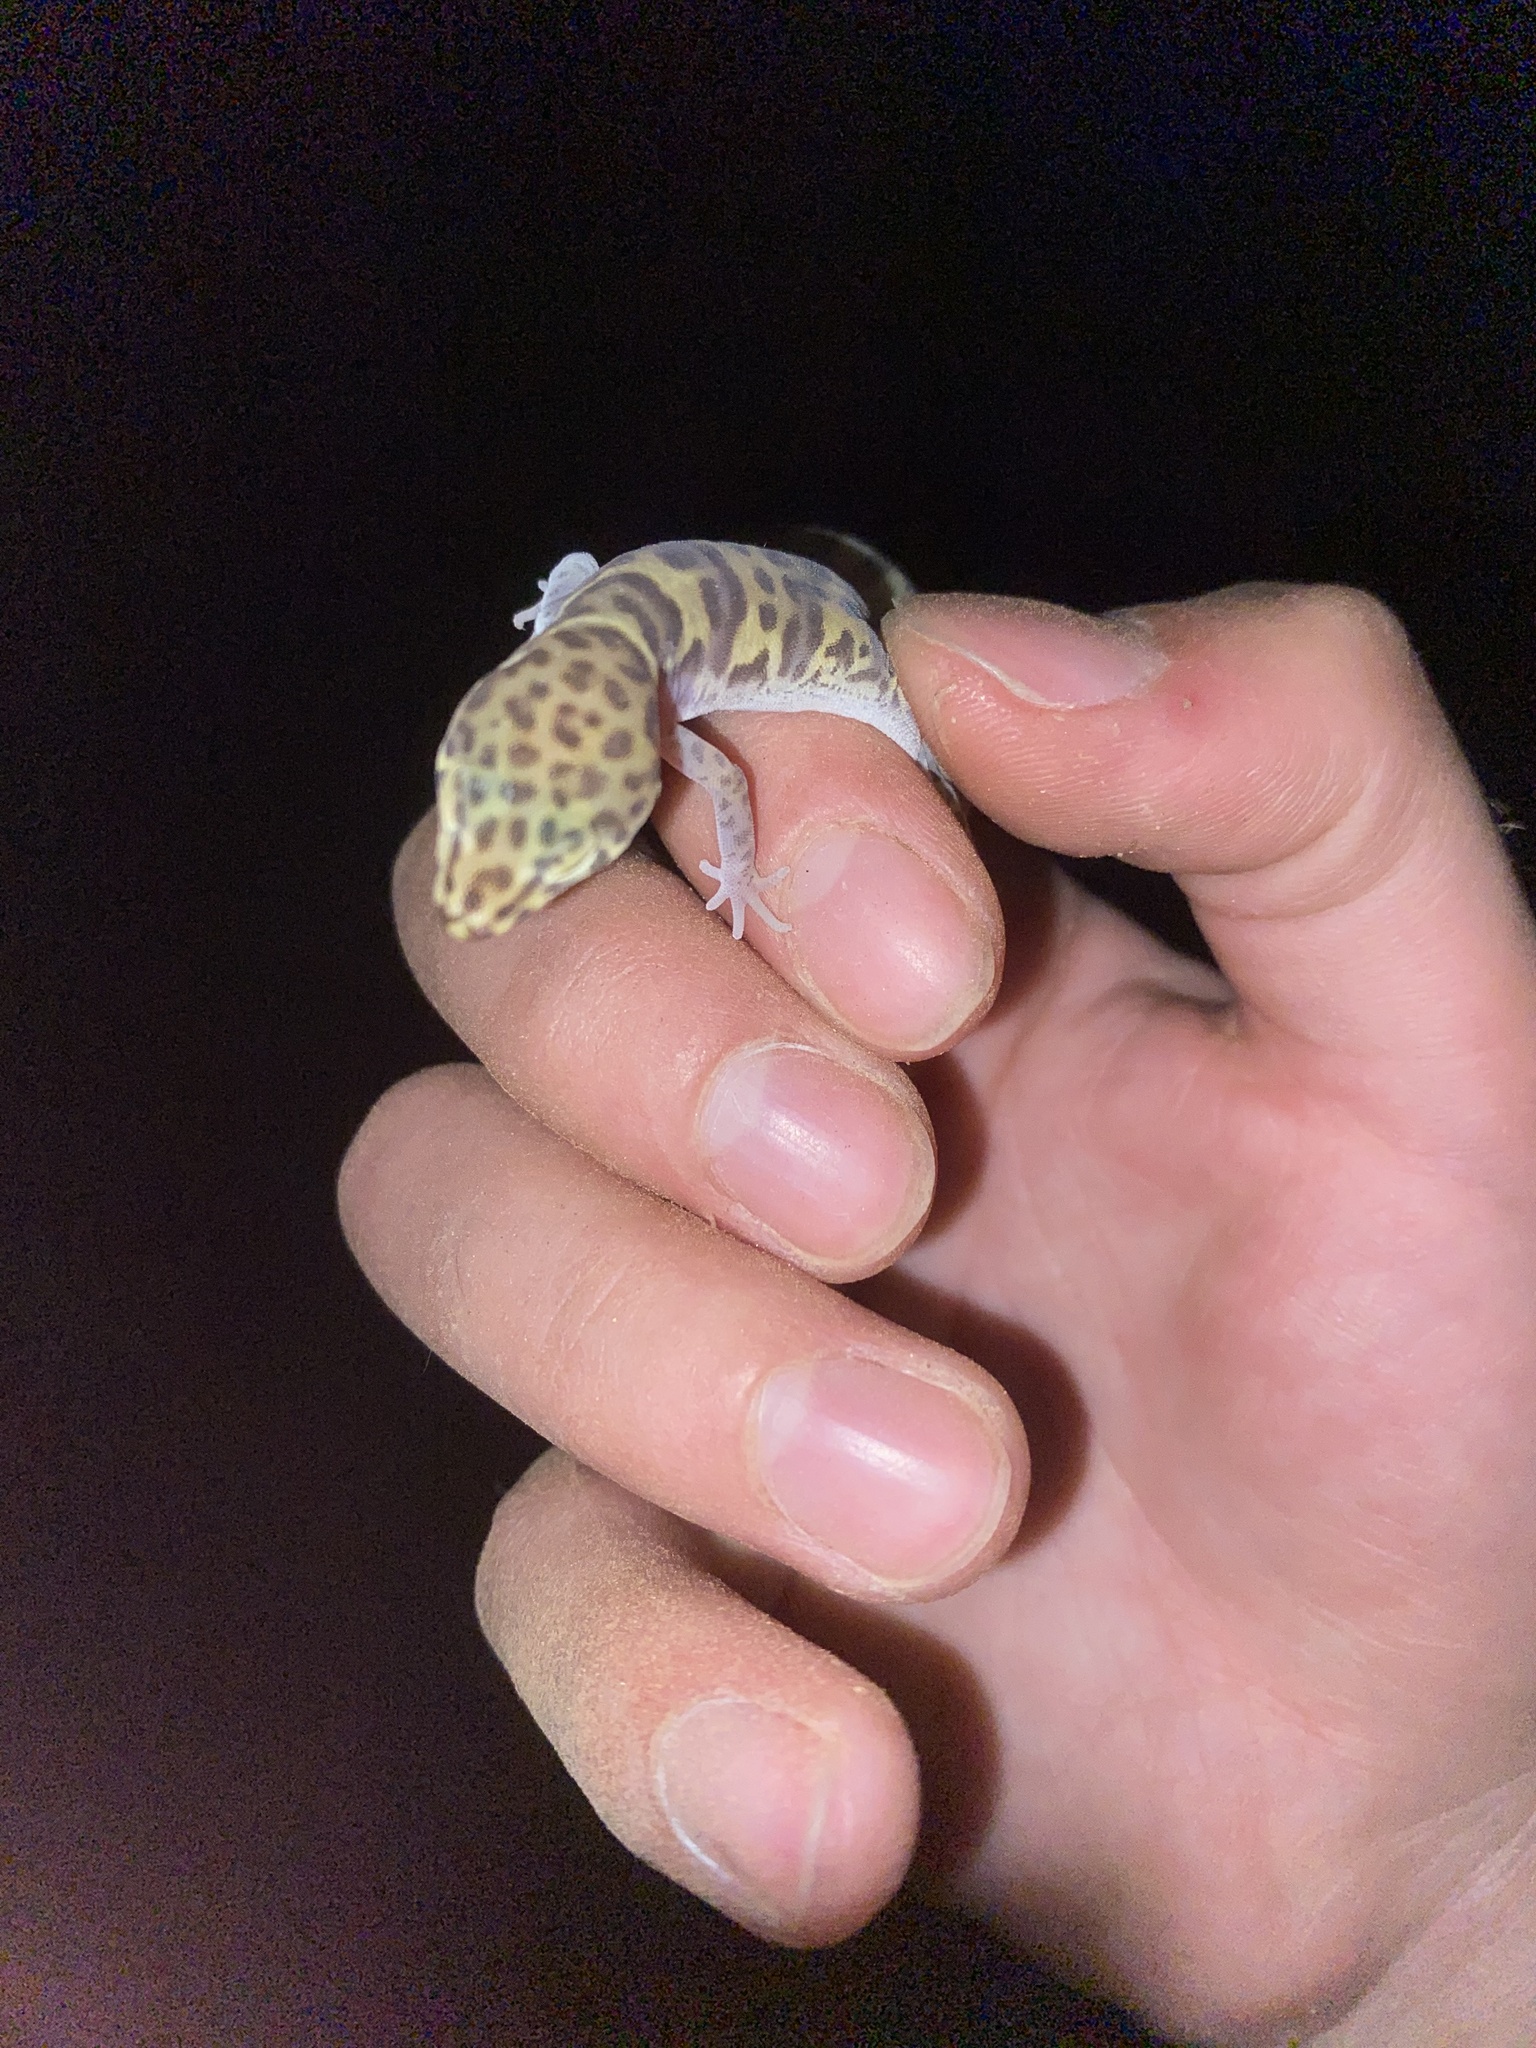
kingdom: Animalia
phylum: Chordata
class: Squamata
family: Eublepharidae
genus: Coleonyx
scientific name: Coleonyx variegatus
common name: Western banded gecko
